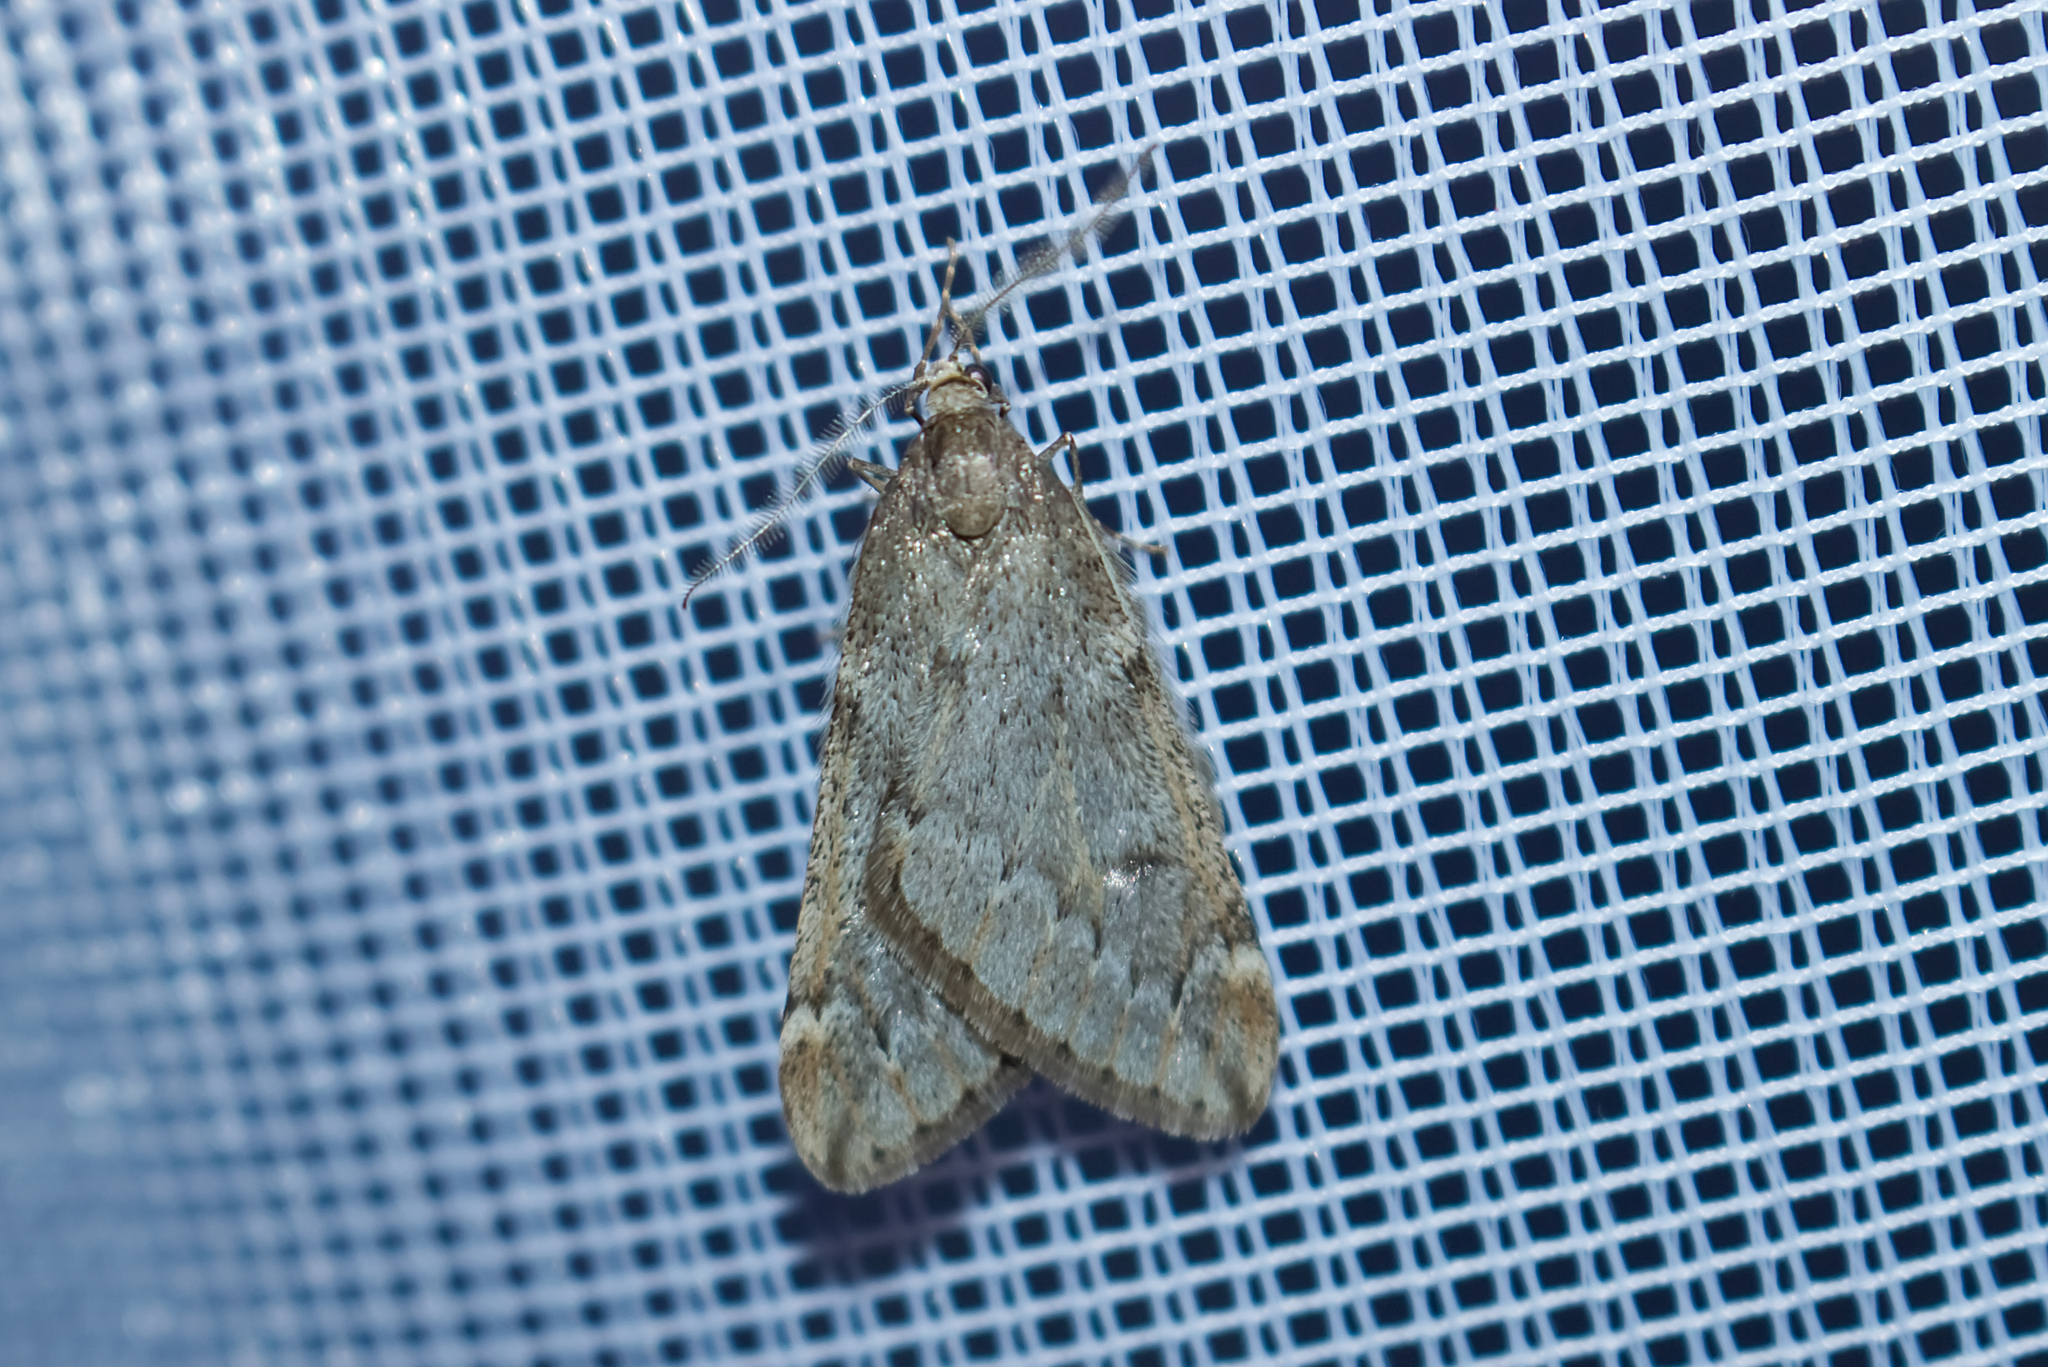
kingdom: Animalia
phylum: Arthropoda
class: Insecta
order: Lepidoptera
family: Geometridae
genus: Alsophila
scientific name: Alsophila aescularia
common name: March moth
